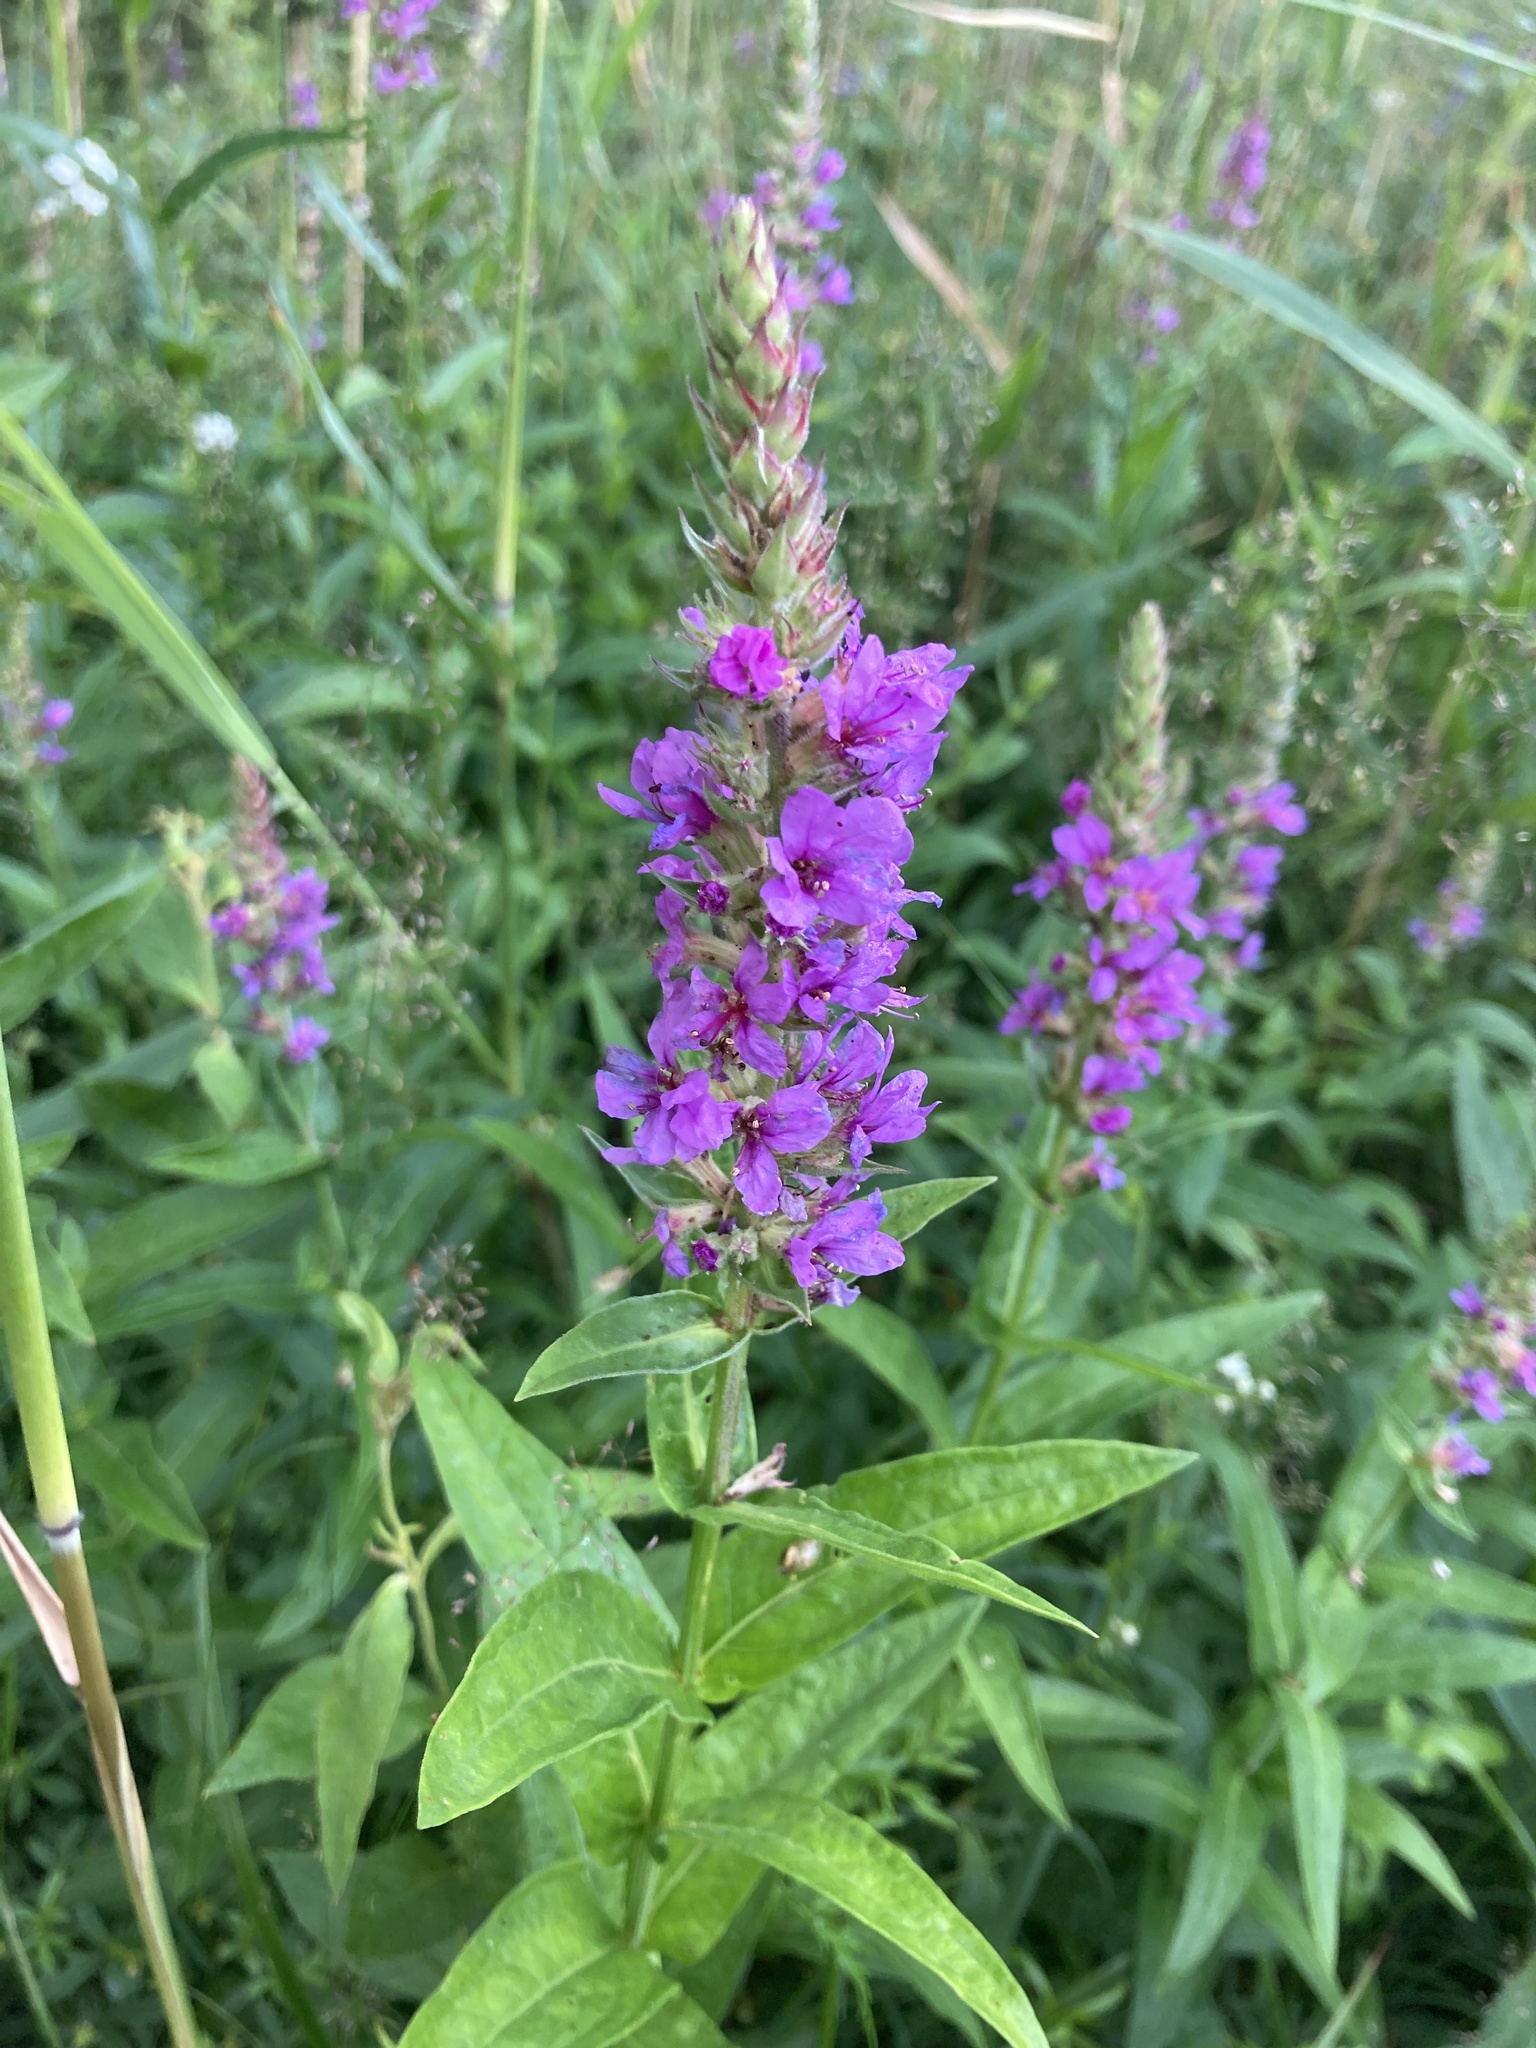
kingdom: Plantae
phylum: Tracheophyta
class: Magnoliopsida
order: Myrtales
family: Lythraceae
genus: Lythrum
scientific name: Lythrum salicaria
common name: Purple loosestrife
